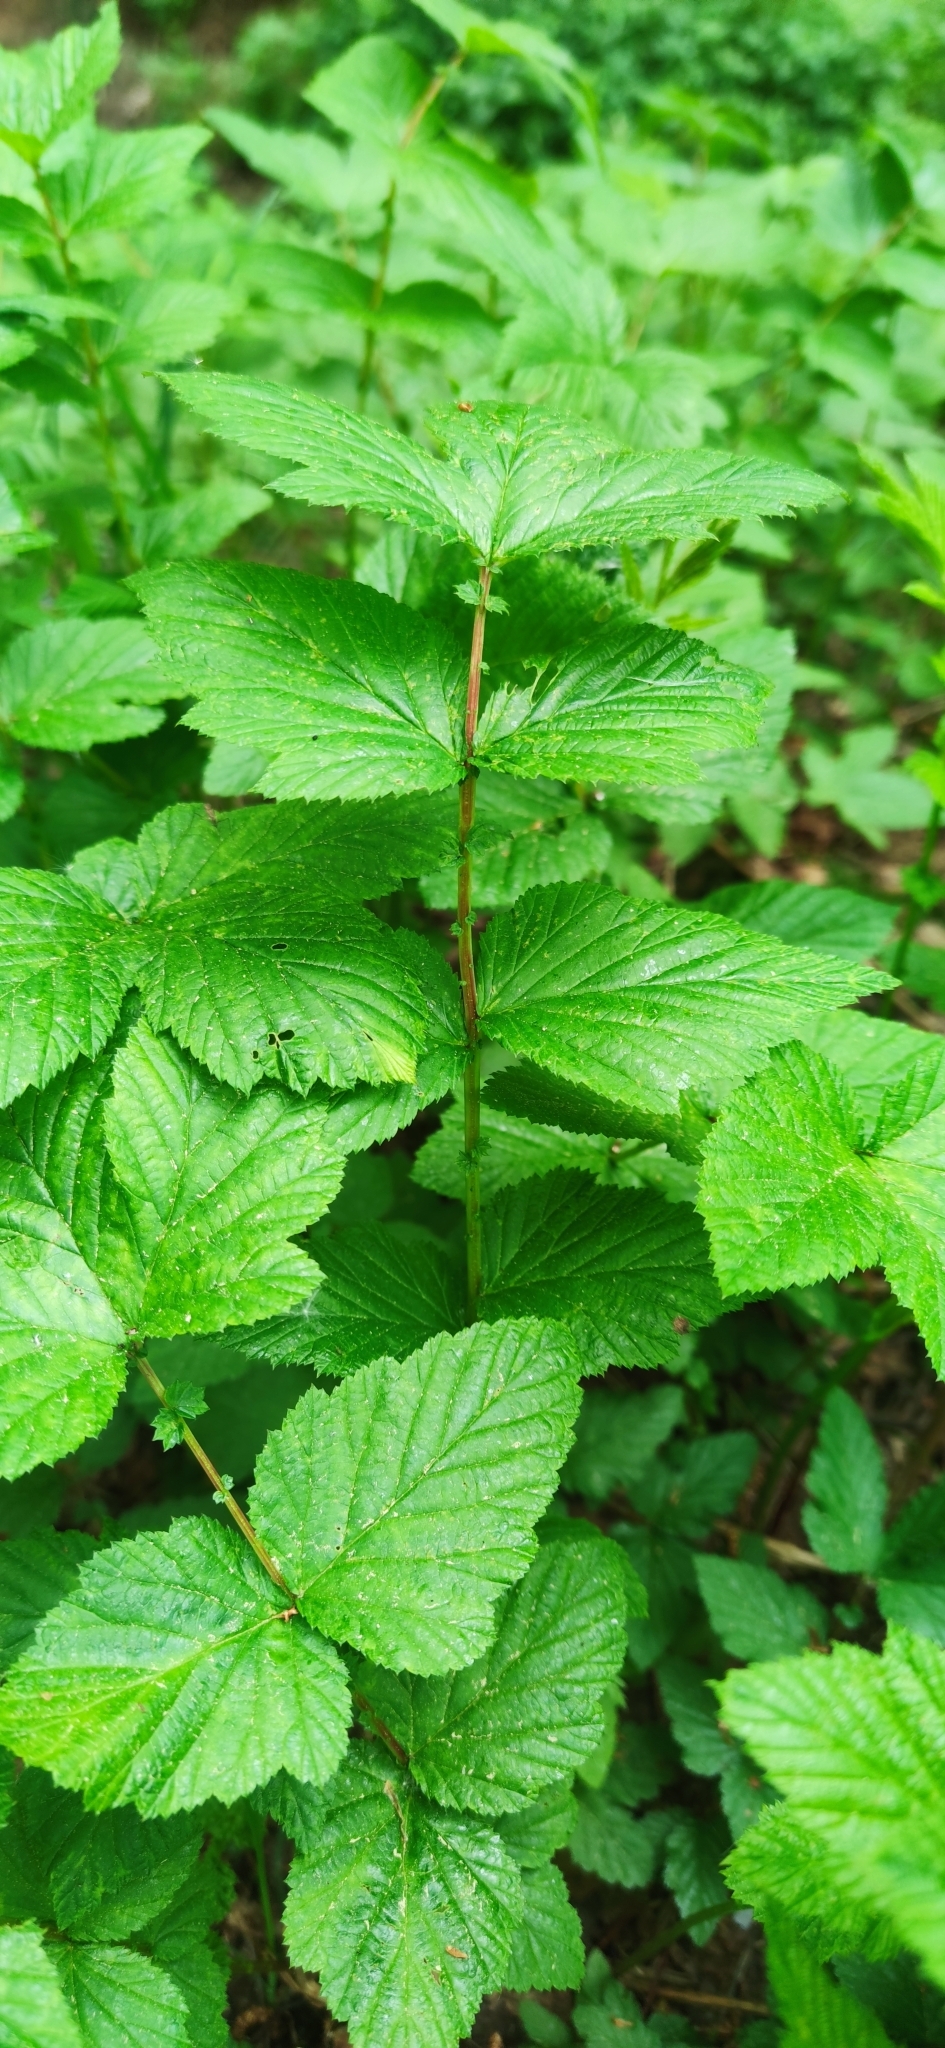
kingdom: Plantae
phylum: Tracheophyta
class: Magnoliopsida
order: Rosales
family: Rosaceae
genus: Filipendula
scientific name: Filipendula ulmaria
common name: Meadowsweet
